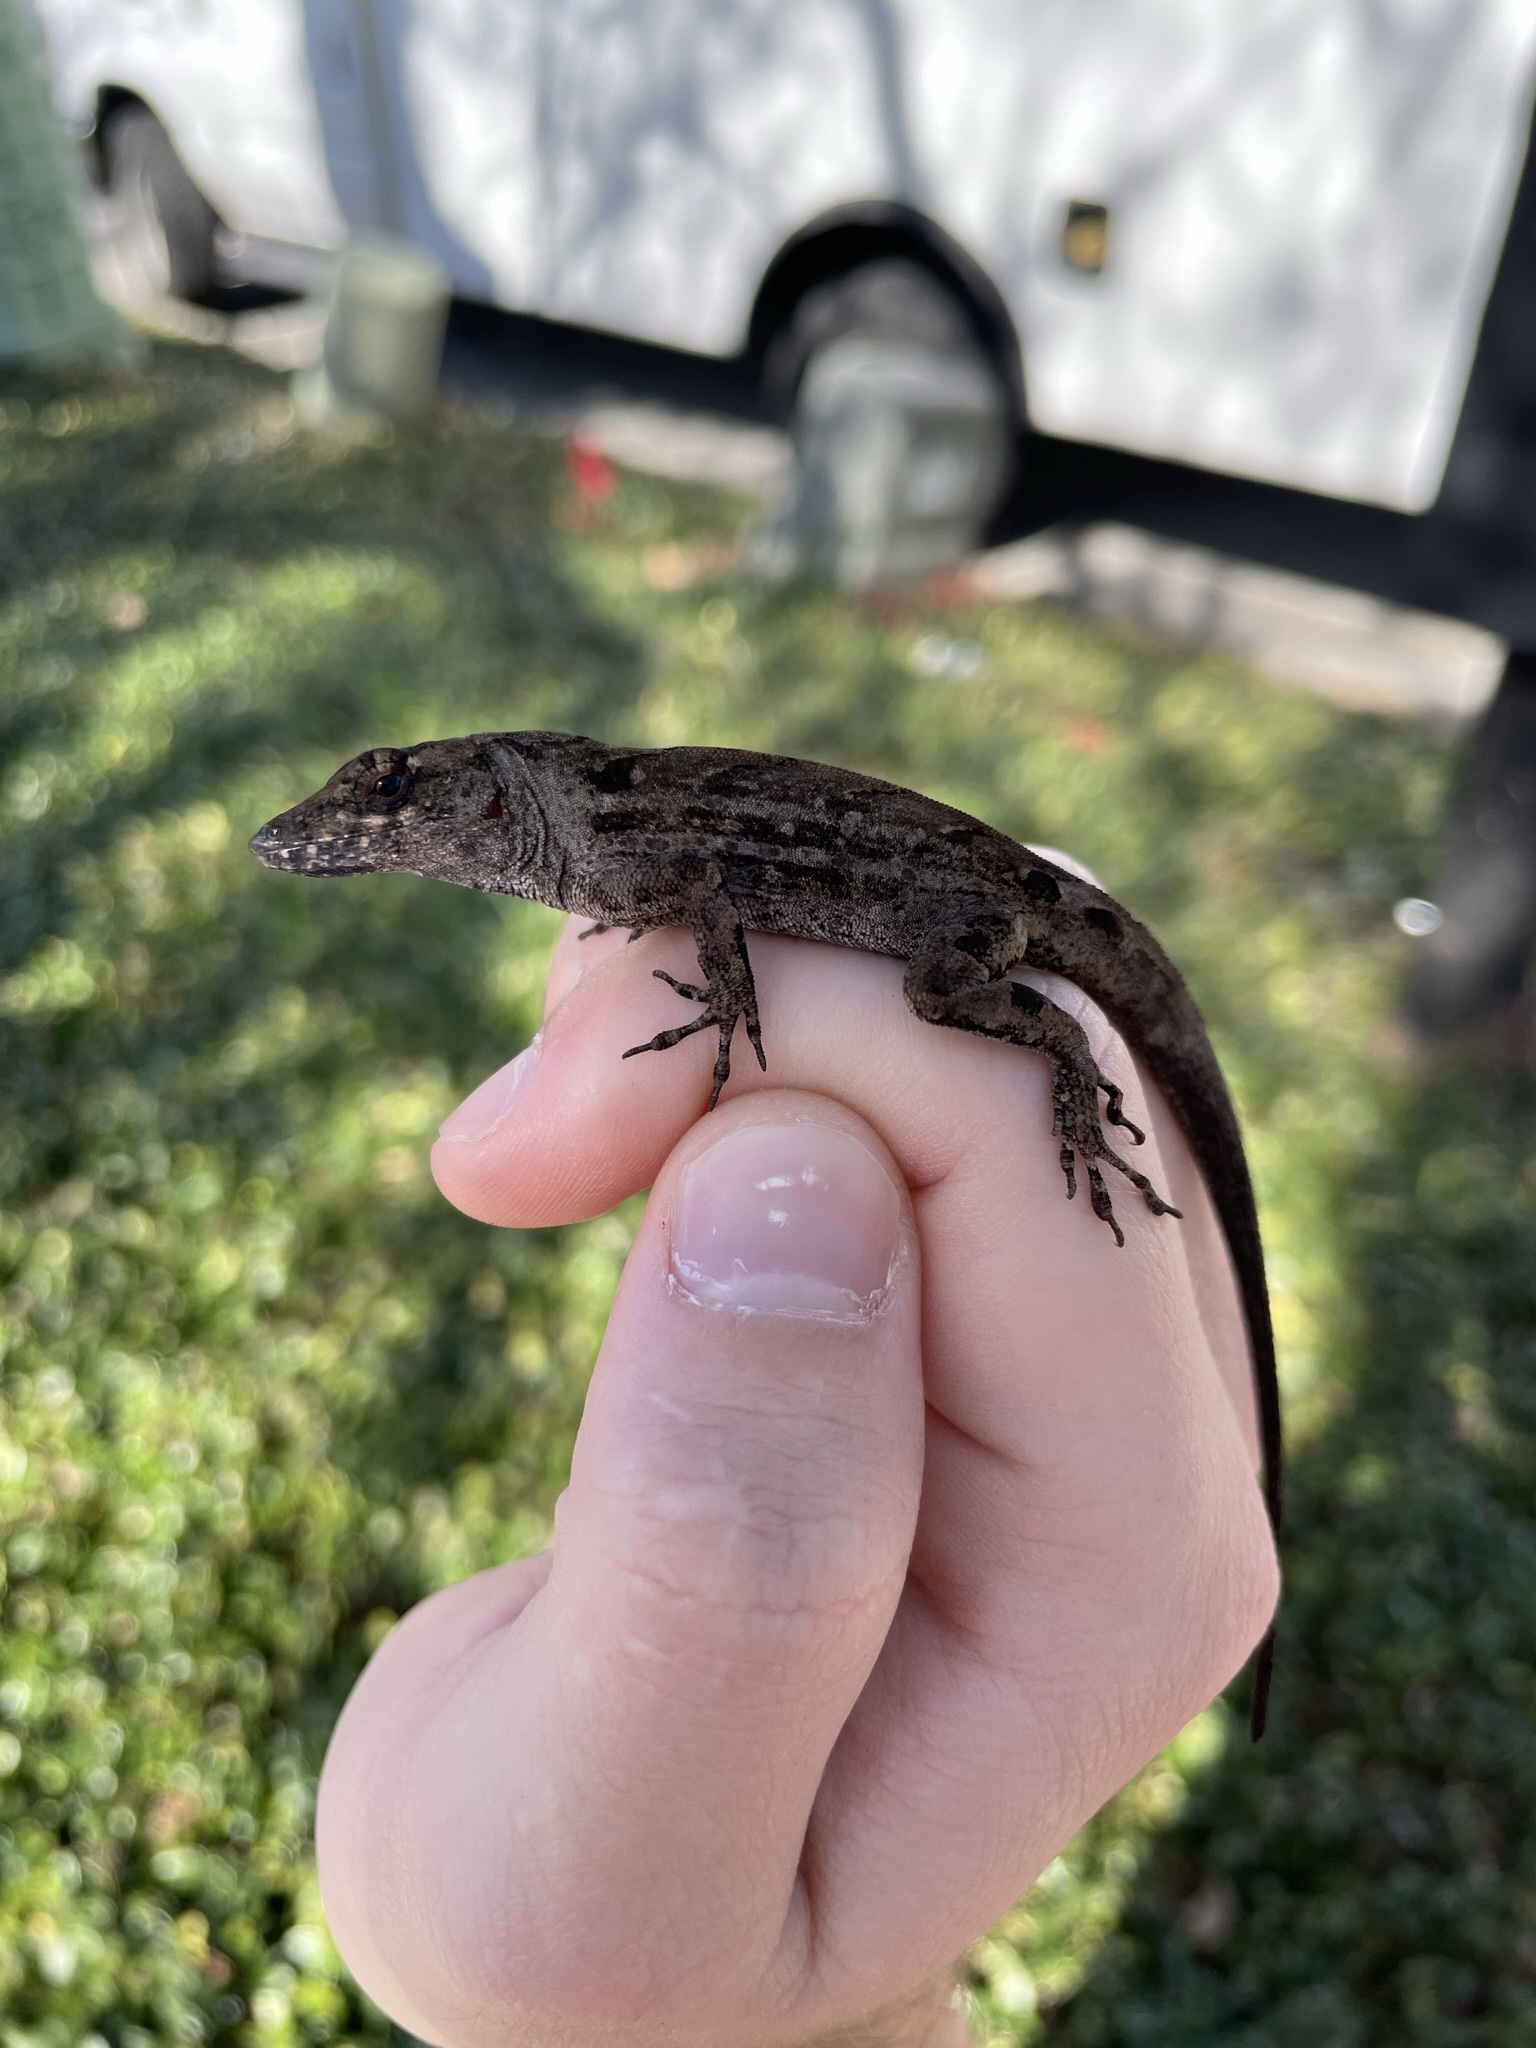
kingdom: Animalia
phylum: Chordata
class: Squamata
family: Dactyloidae
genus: Anolis
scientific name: Anolis sagrei
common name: Brown anole
